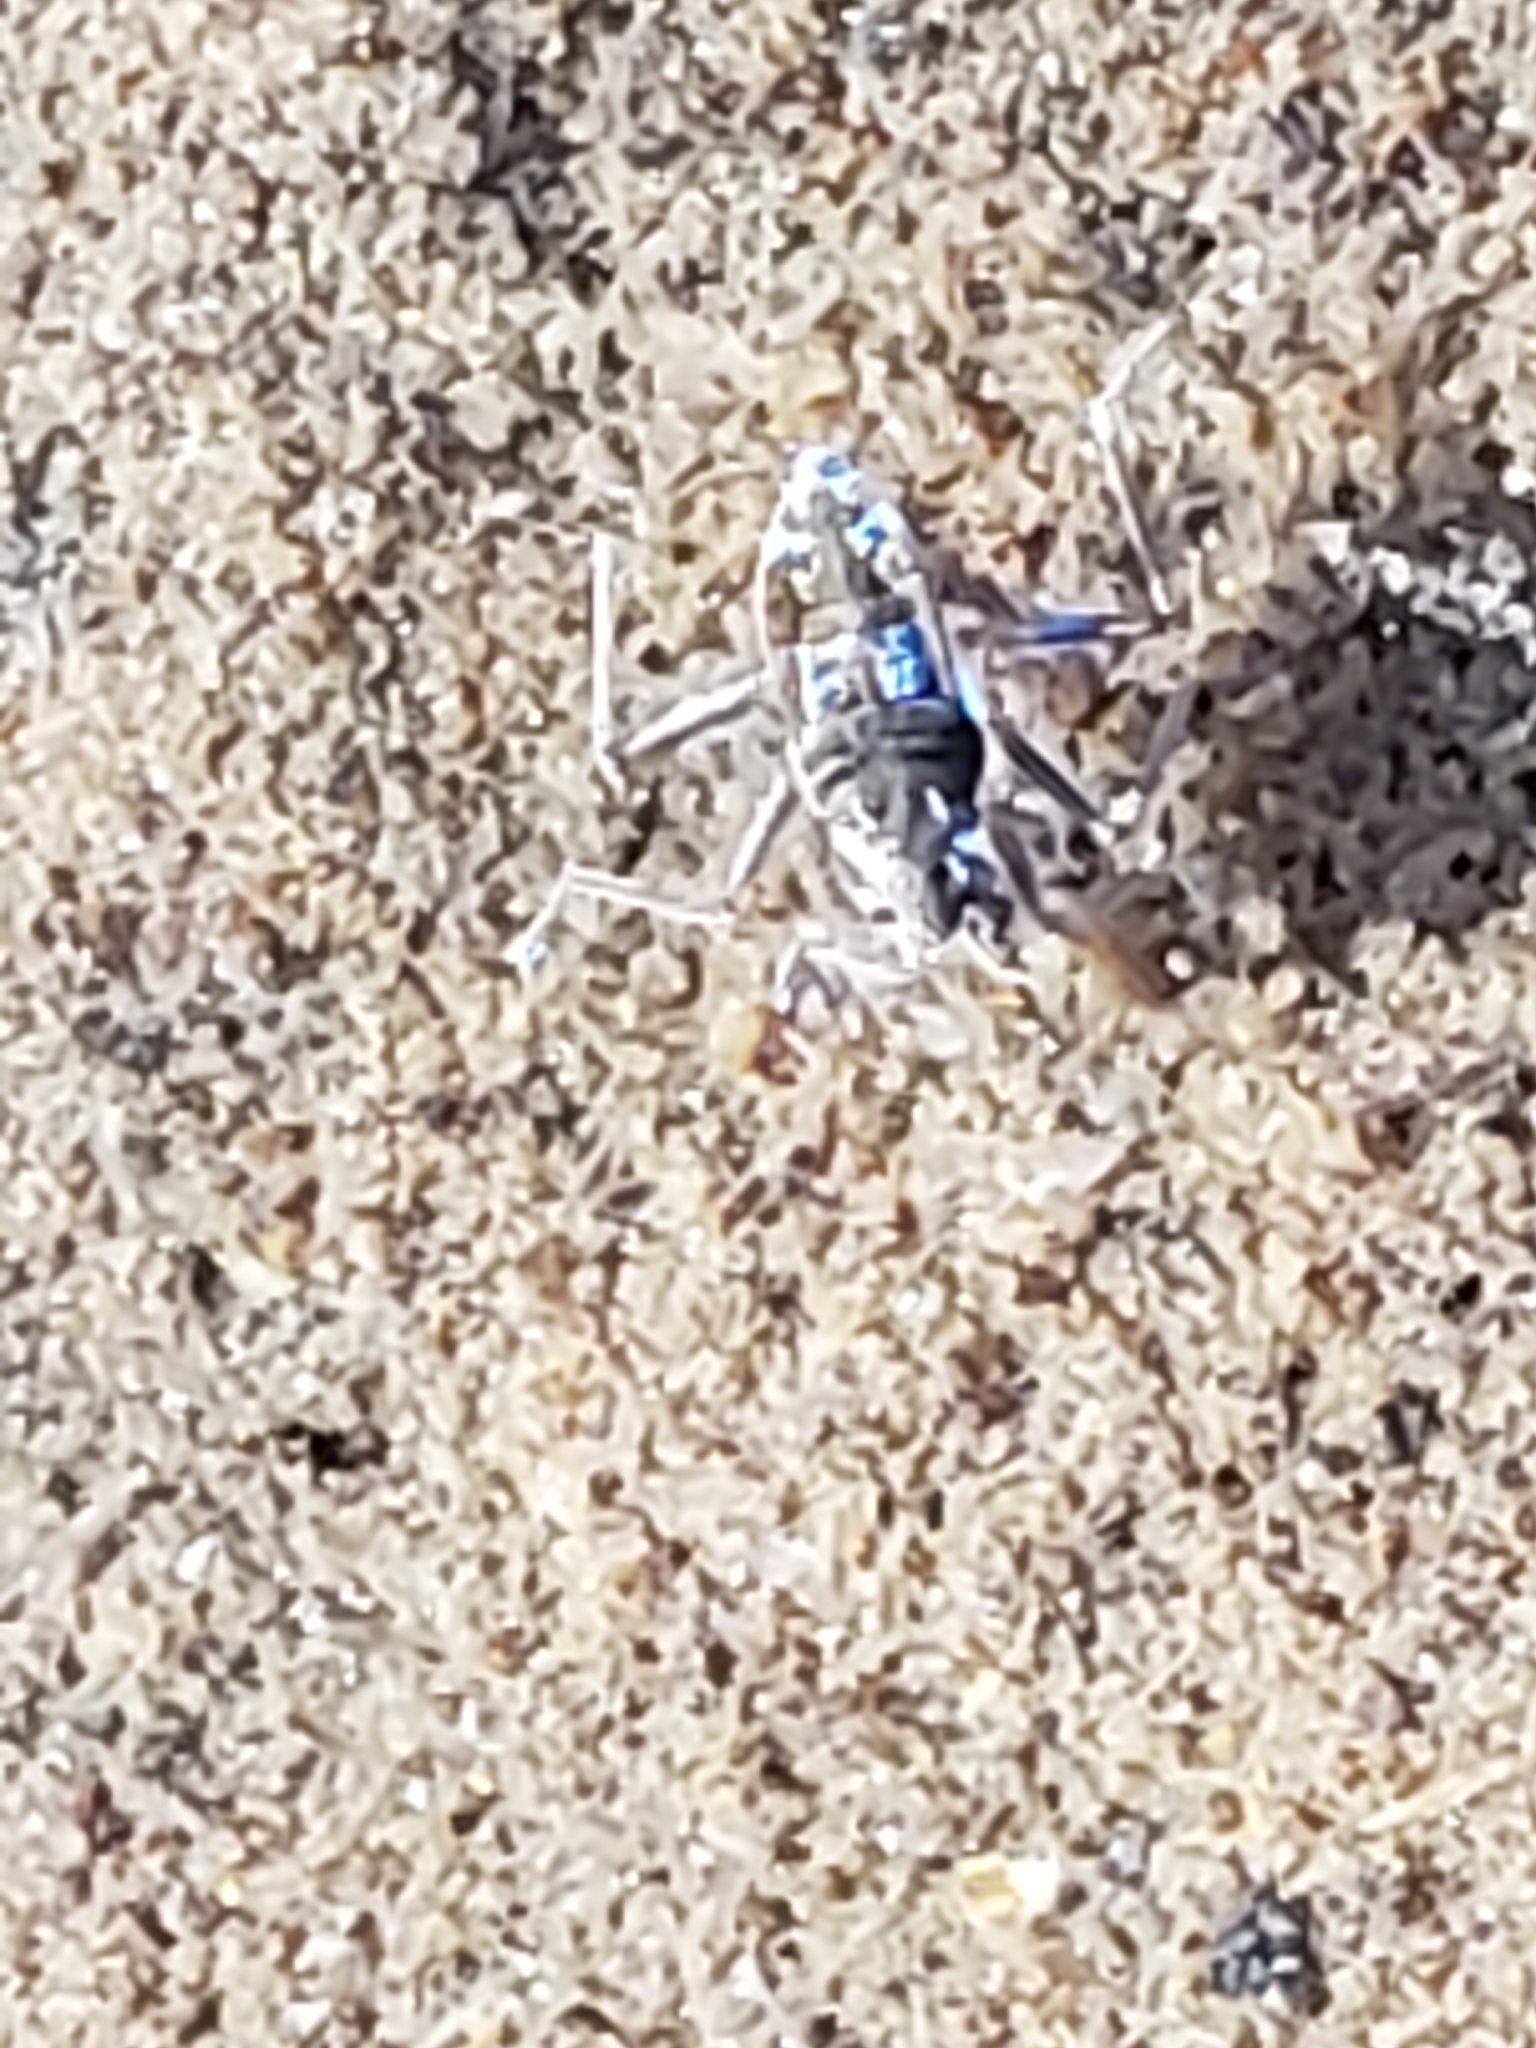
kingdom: Animalia
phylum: Arthropoda
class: Insecta
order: Hemiptera
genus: Kirkaldya
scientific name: Kirkaldya
